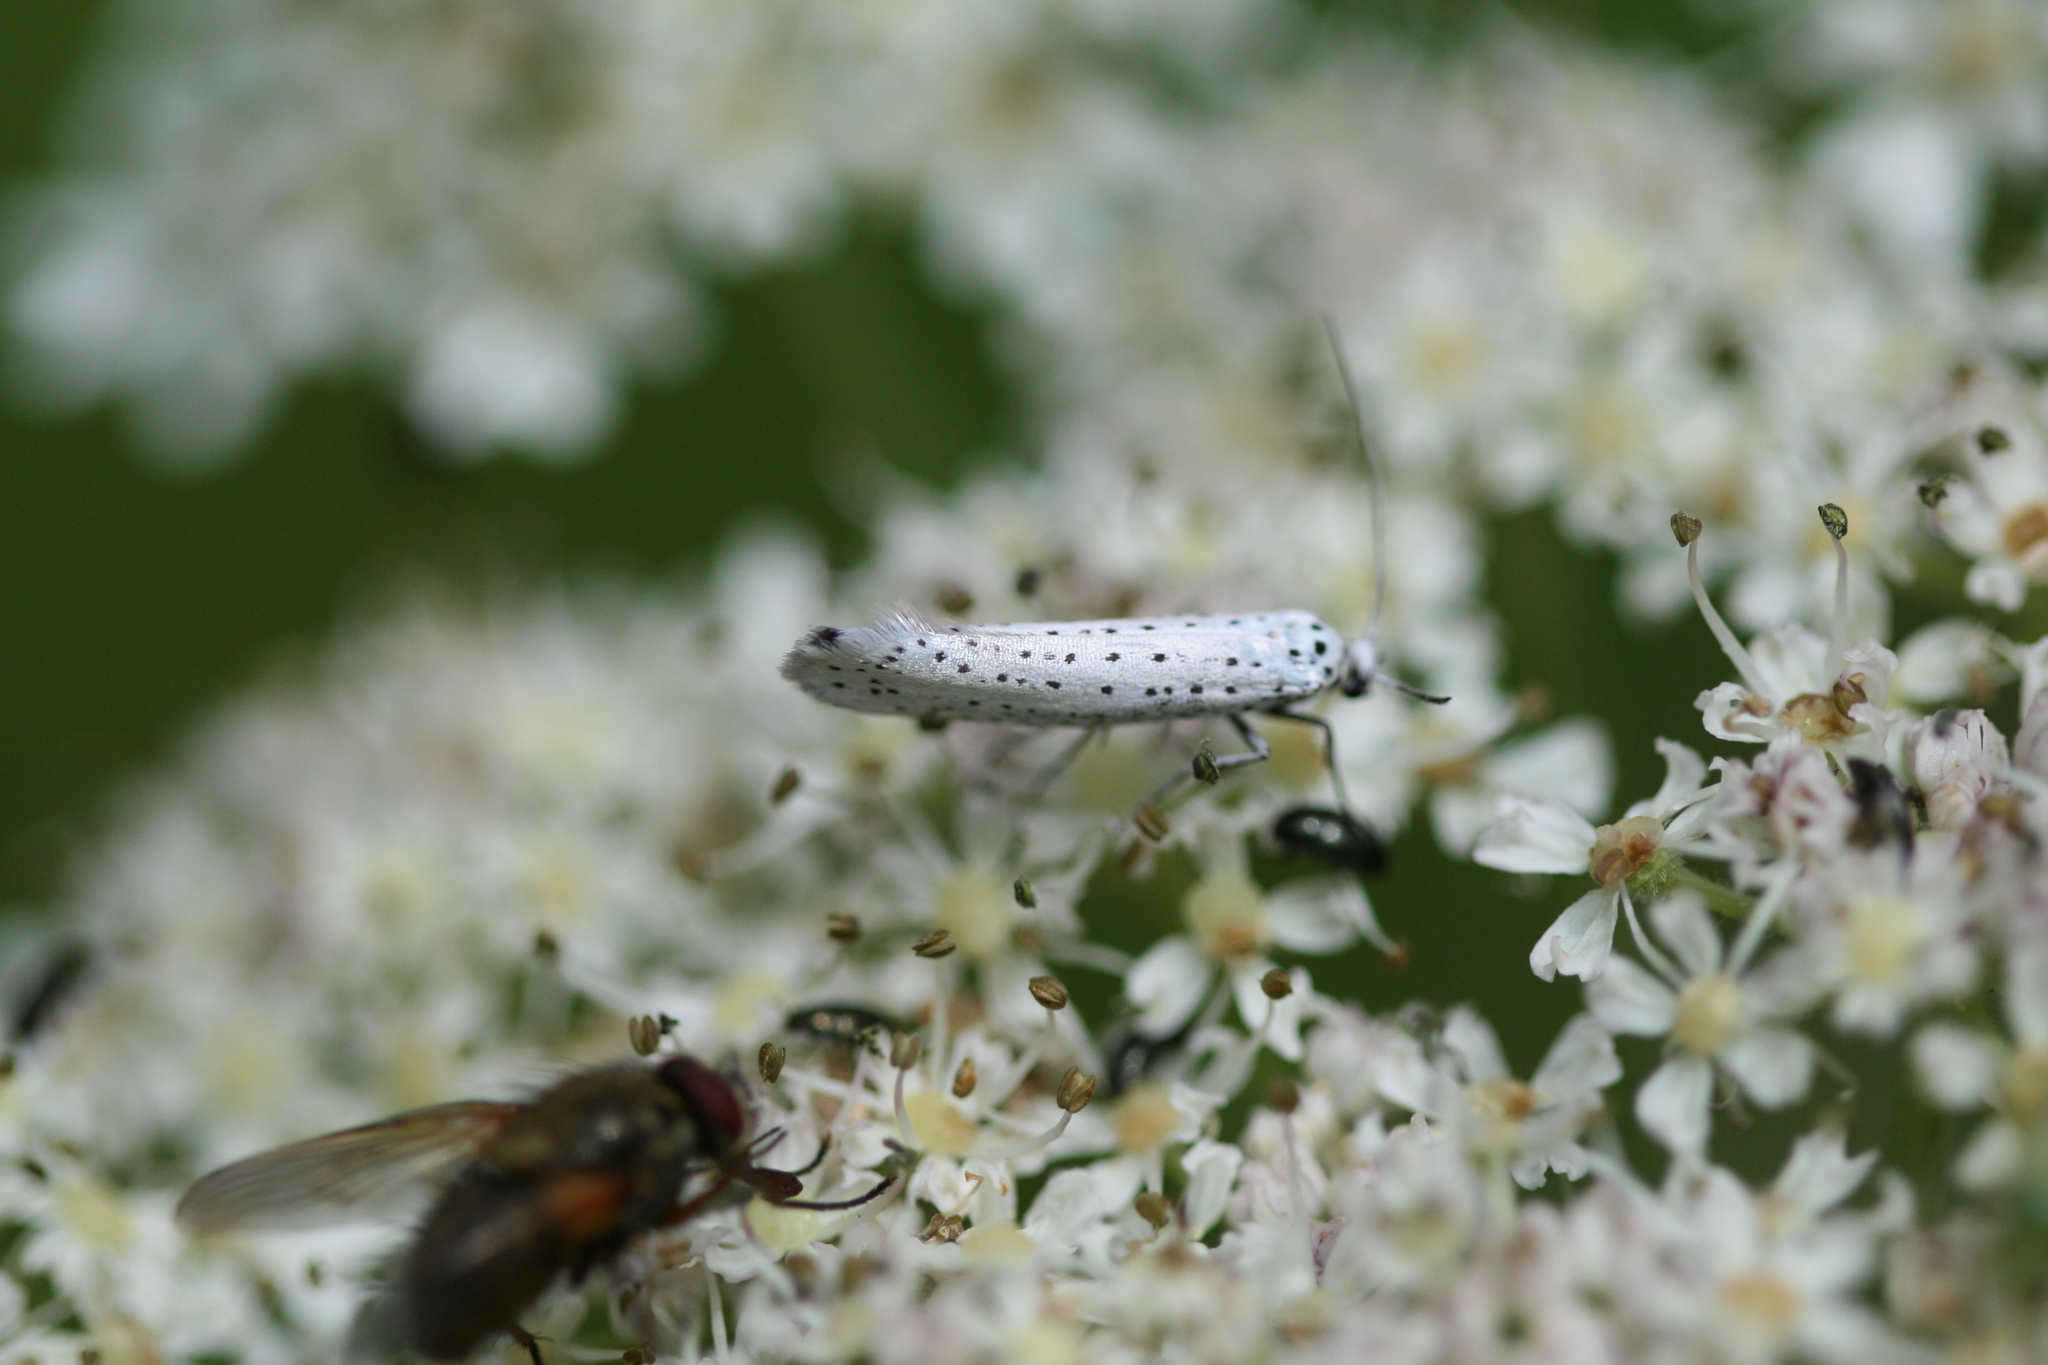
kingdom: Animalia
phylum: Arthropoda
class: Insecta
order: Lepidoptera
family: Yponomeutidae
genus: Yponomeuta
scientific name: Yponomeuta evonymella
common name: Bird-cherry ermine
